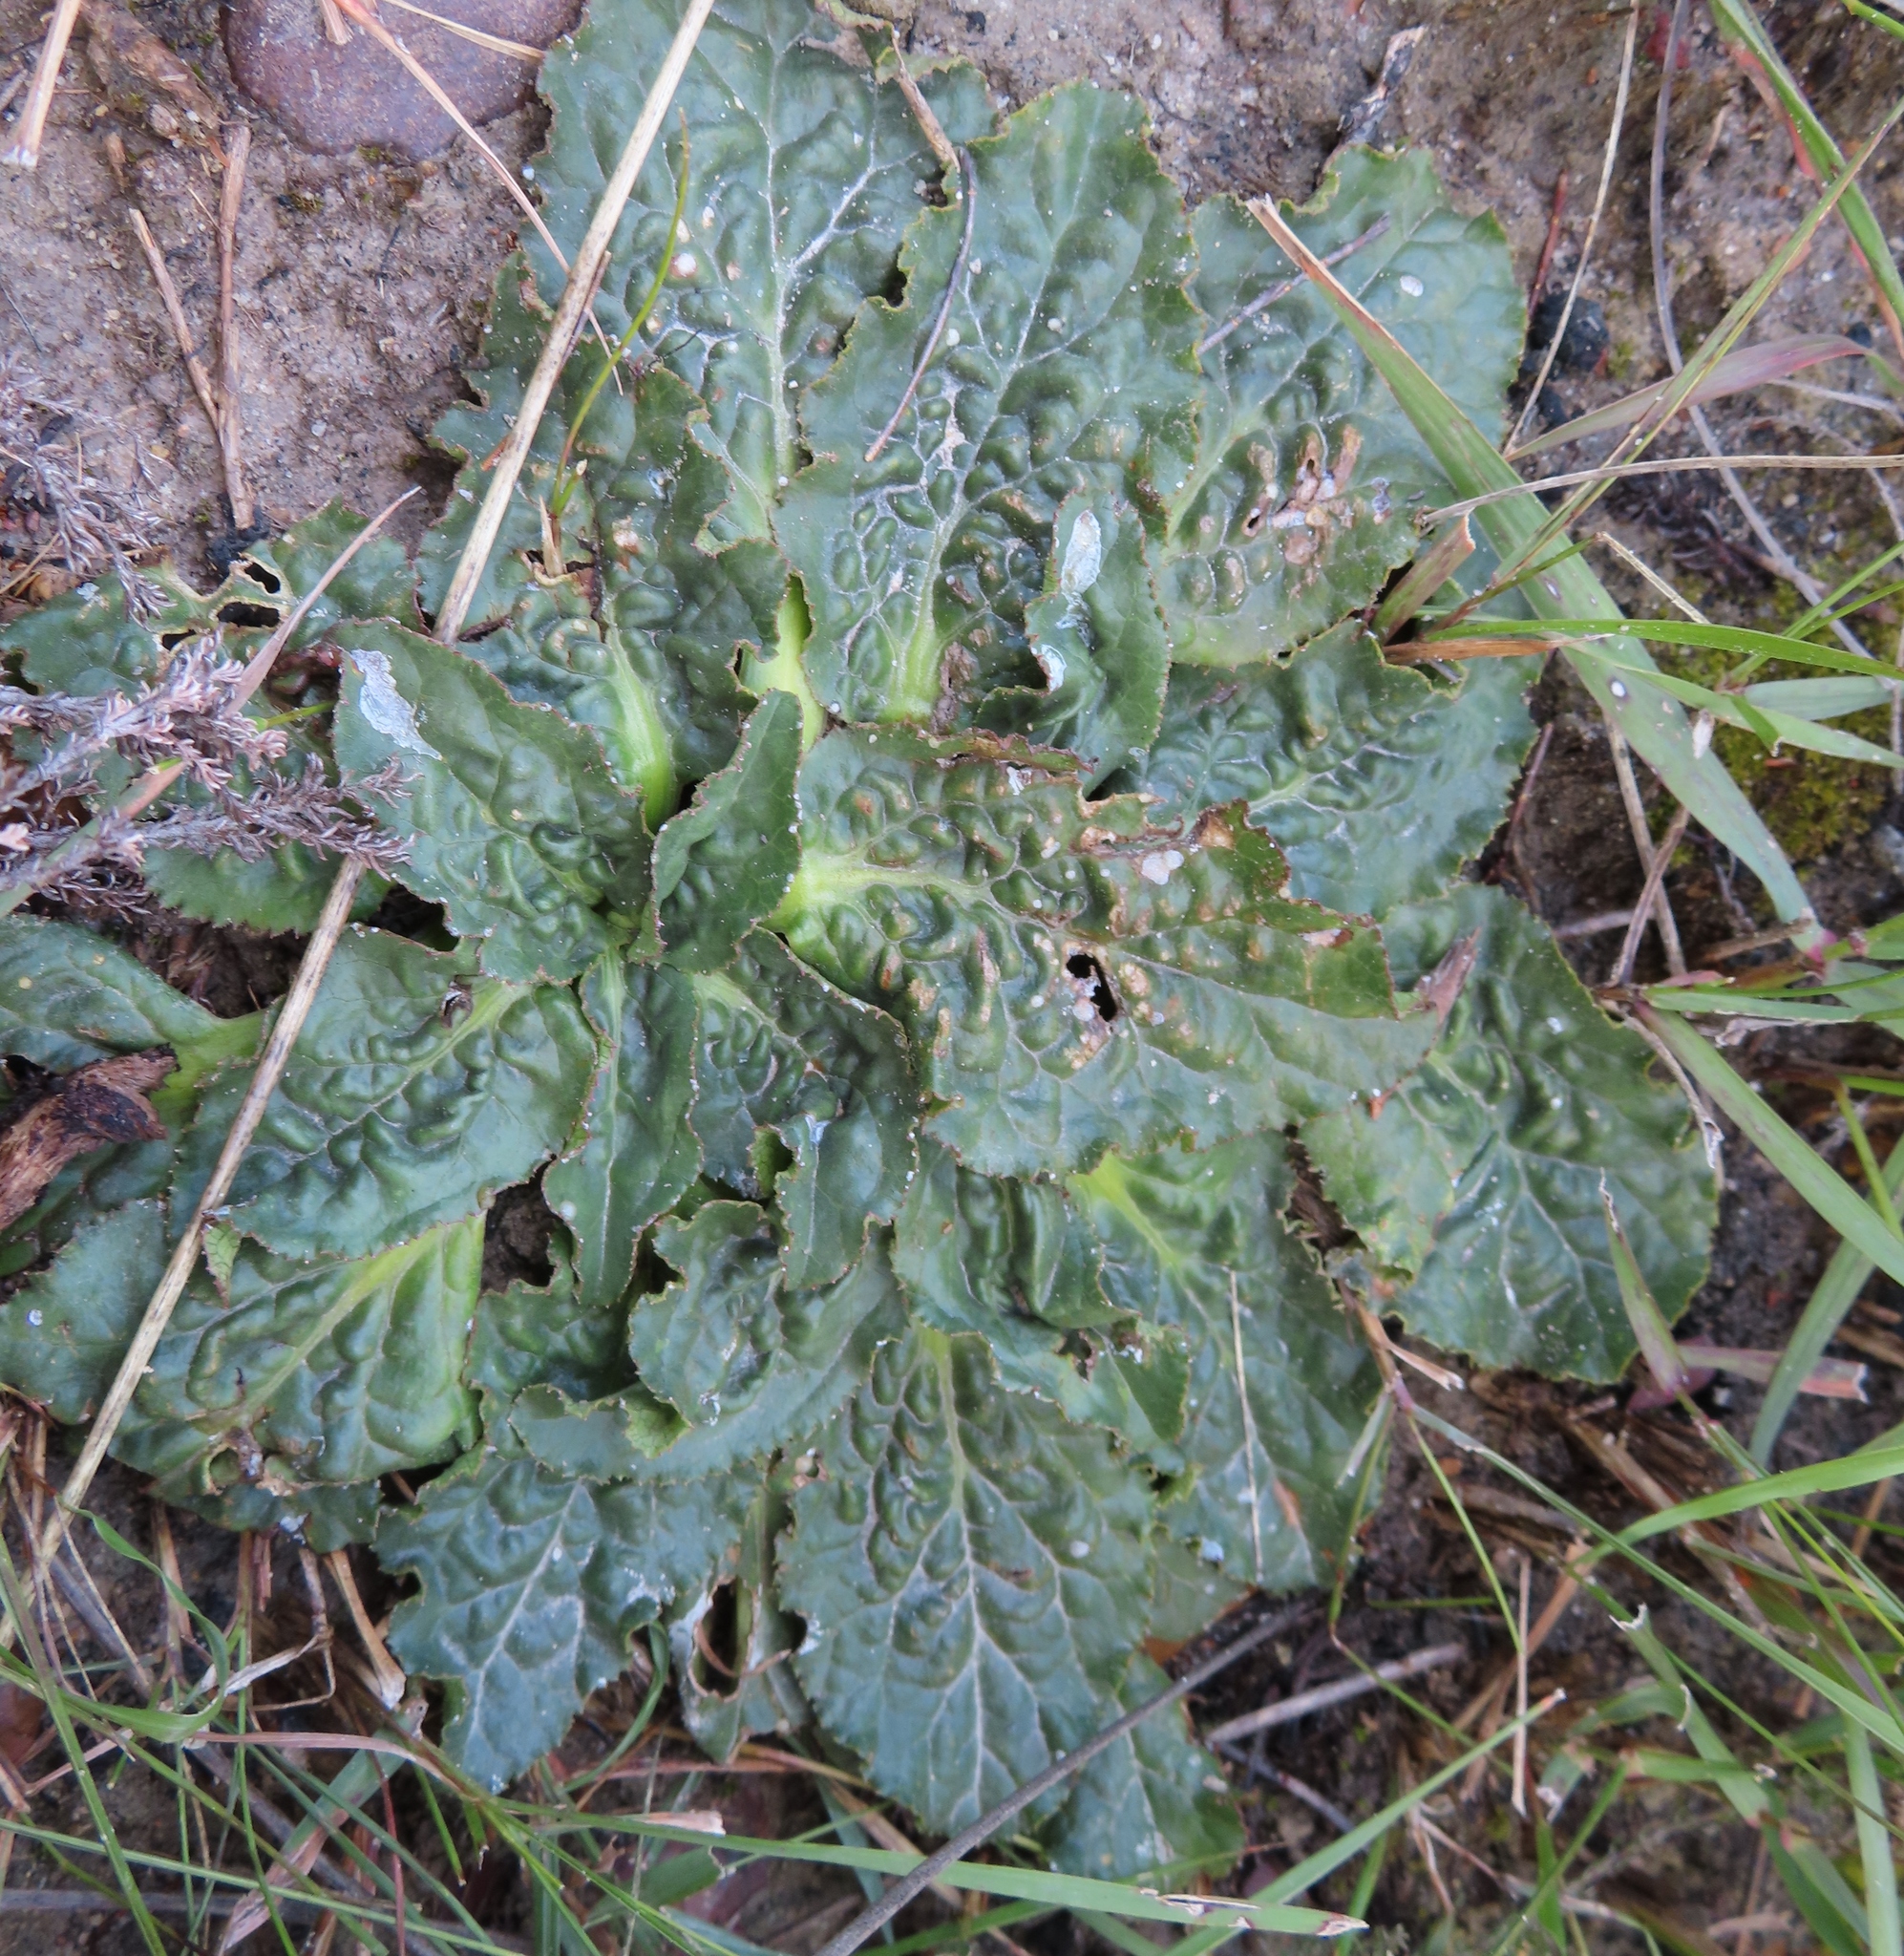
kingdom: Plantae
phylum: Tracheophyta
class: Magnoliopsida
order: Apiales
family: Apiaceae
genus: Lichtensteinia
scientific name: Lichtensteinia latifolia
